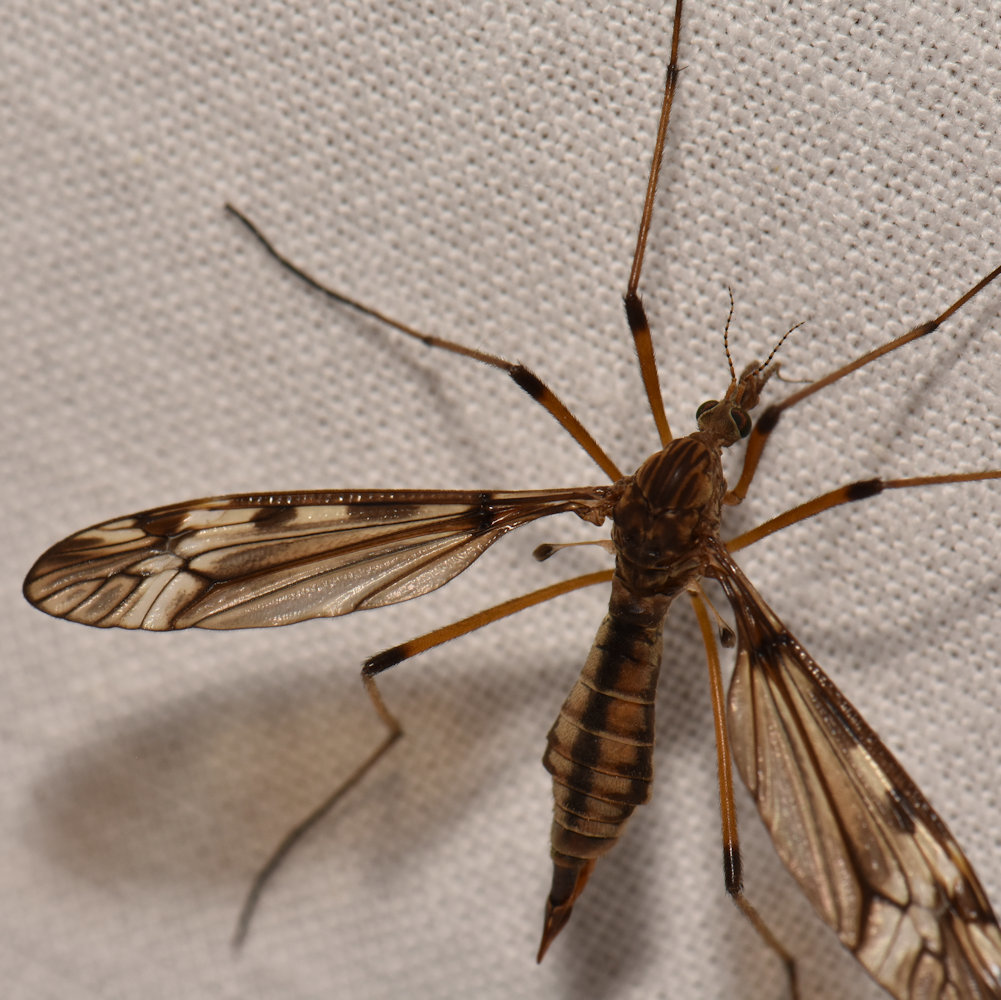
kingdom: Animalia
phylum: Arthropoda
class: Insecta
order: Diptera
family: Tipulidae
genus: Tipula
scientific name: Tipula fuliginosa
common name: Sooty crane fly
